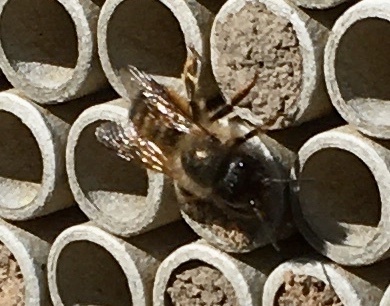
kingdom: Animalia
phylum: Arthropoda
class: Insecta
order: Hymenoptera
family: Megachilidae
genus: Osmia
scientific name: Osmia bicornis
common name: Red mason bee
